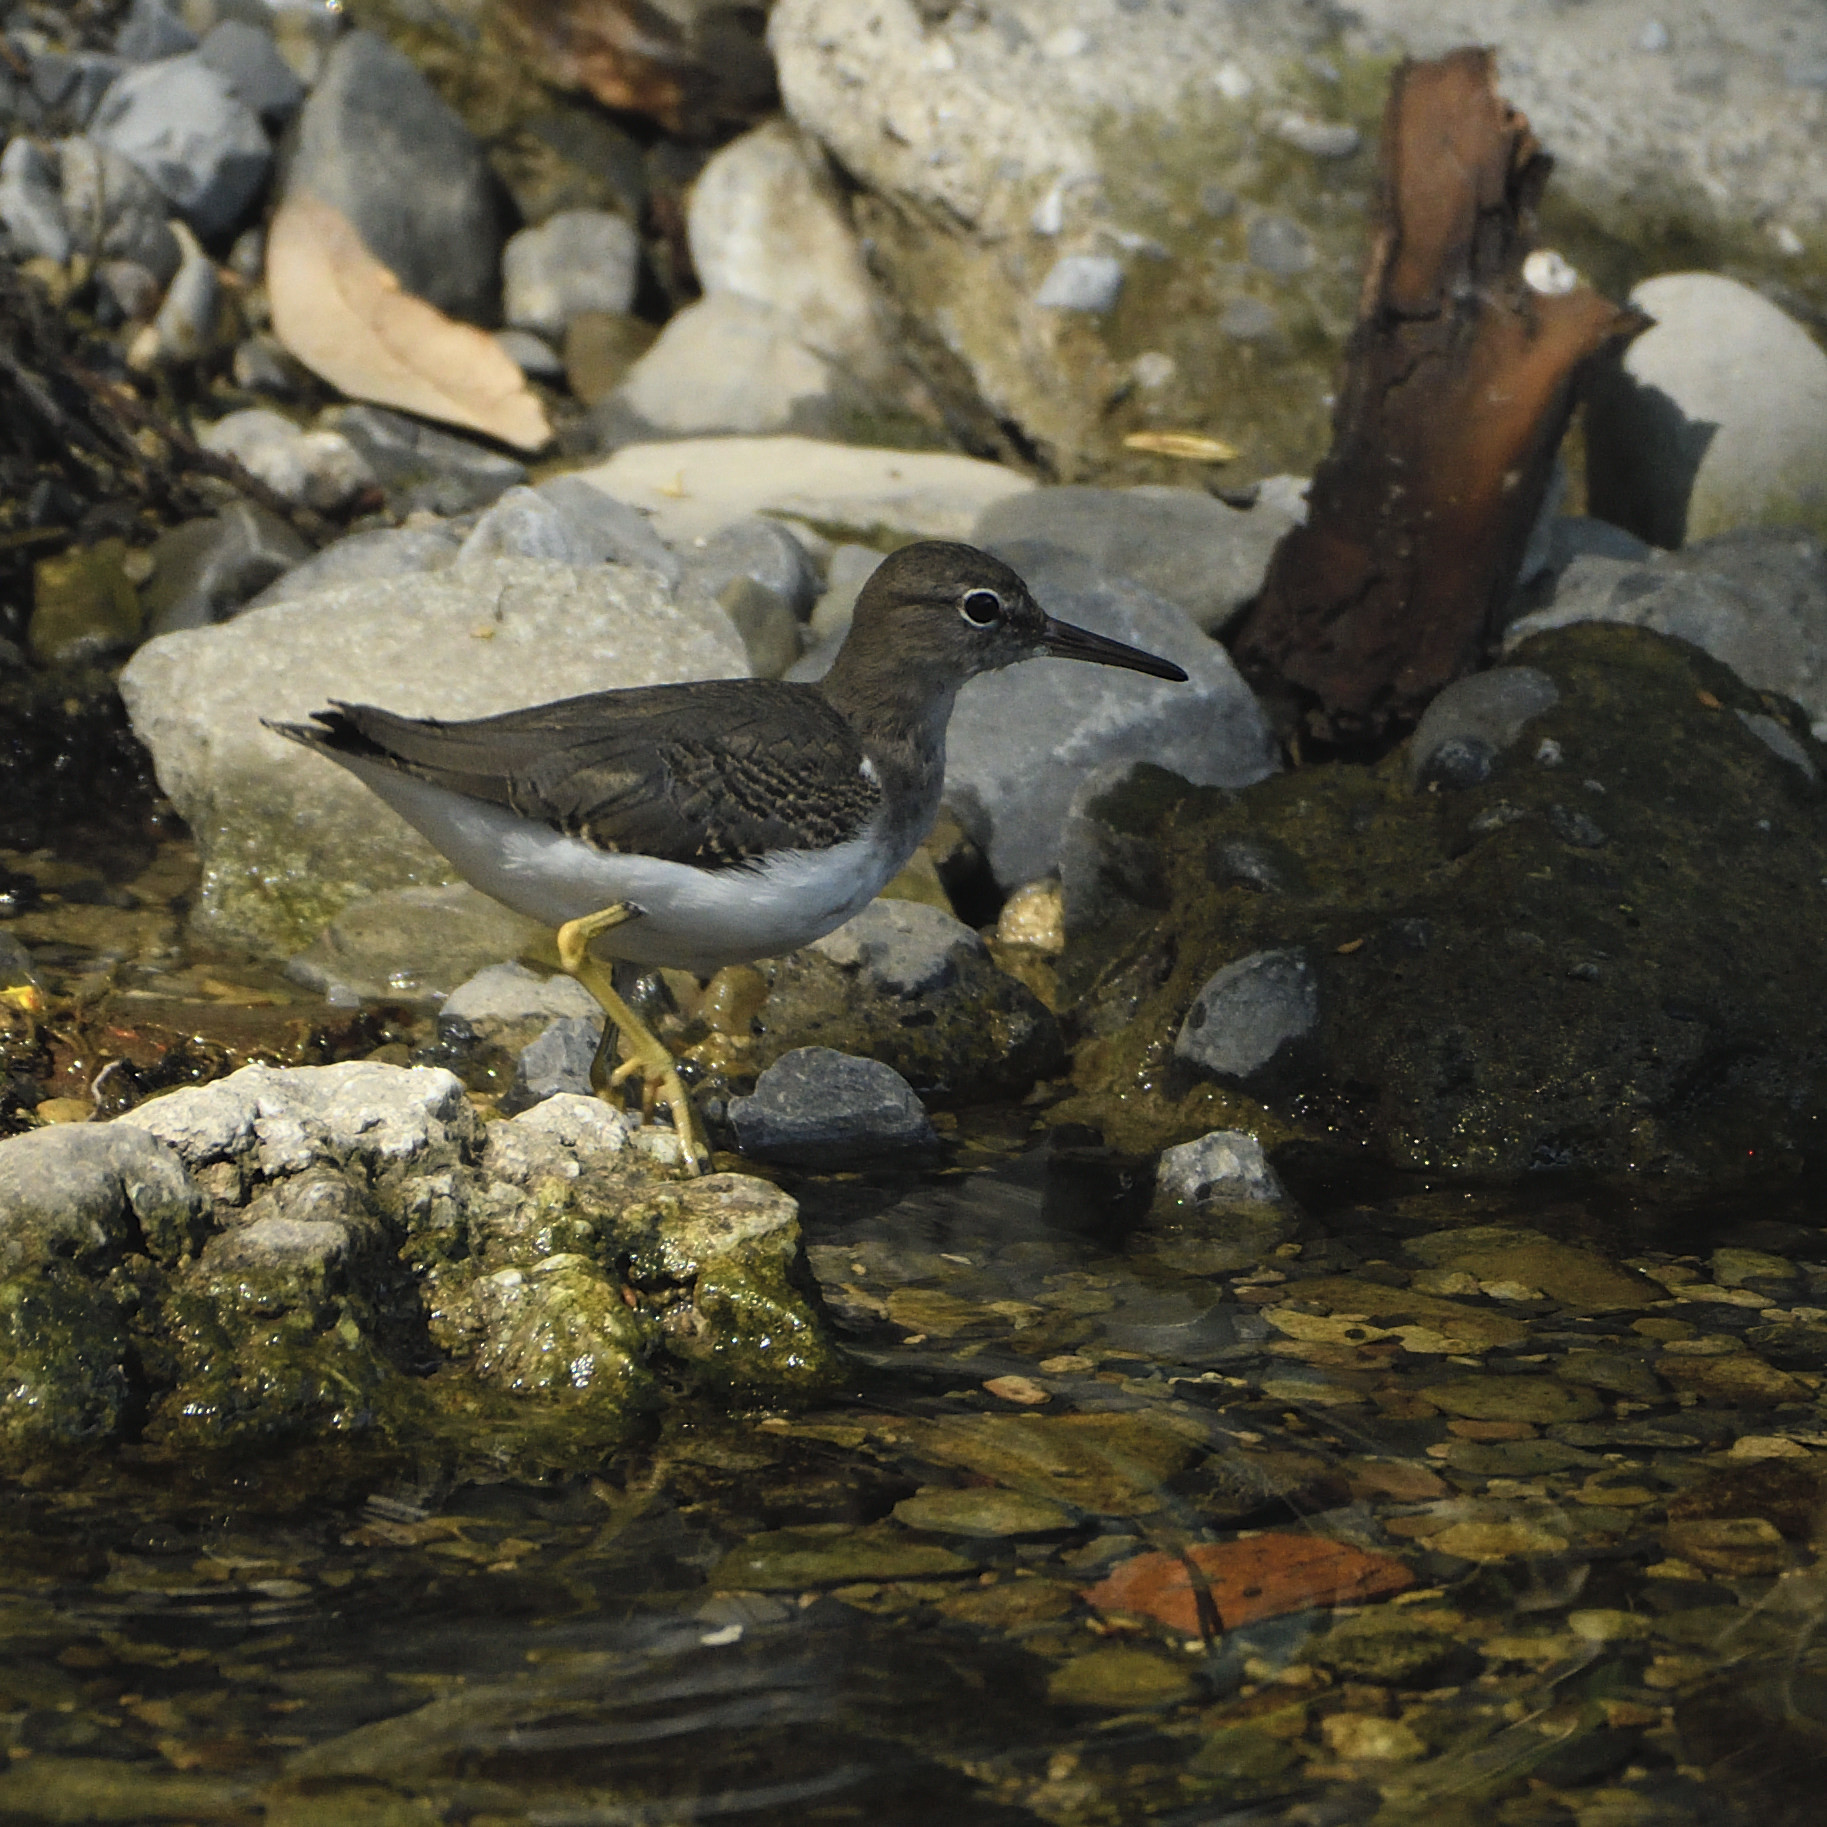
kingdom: Animalia
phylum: Chordata
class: Aves
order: Charadriiformes
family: Scolopacidae
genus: Actitis
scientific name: Actitis macularius
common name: Spotted sandpiper
